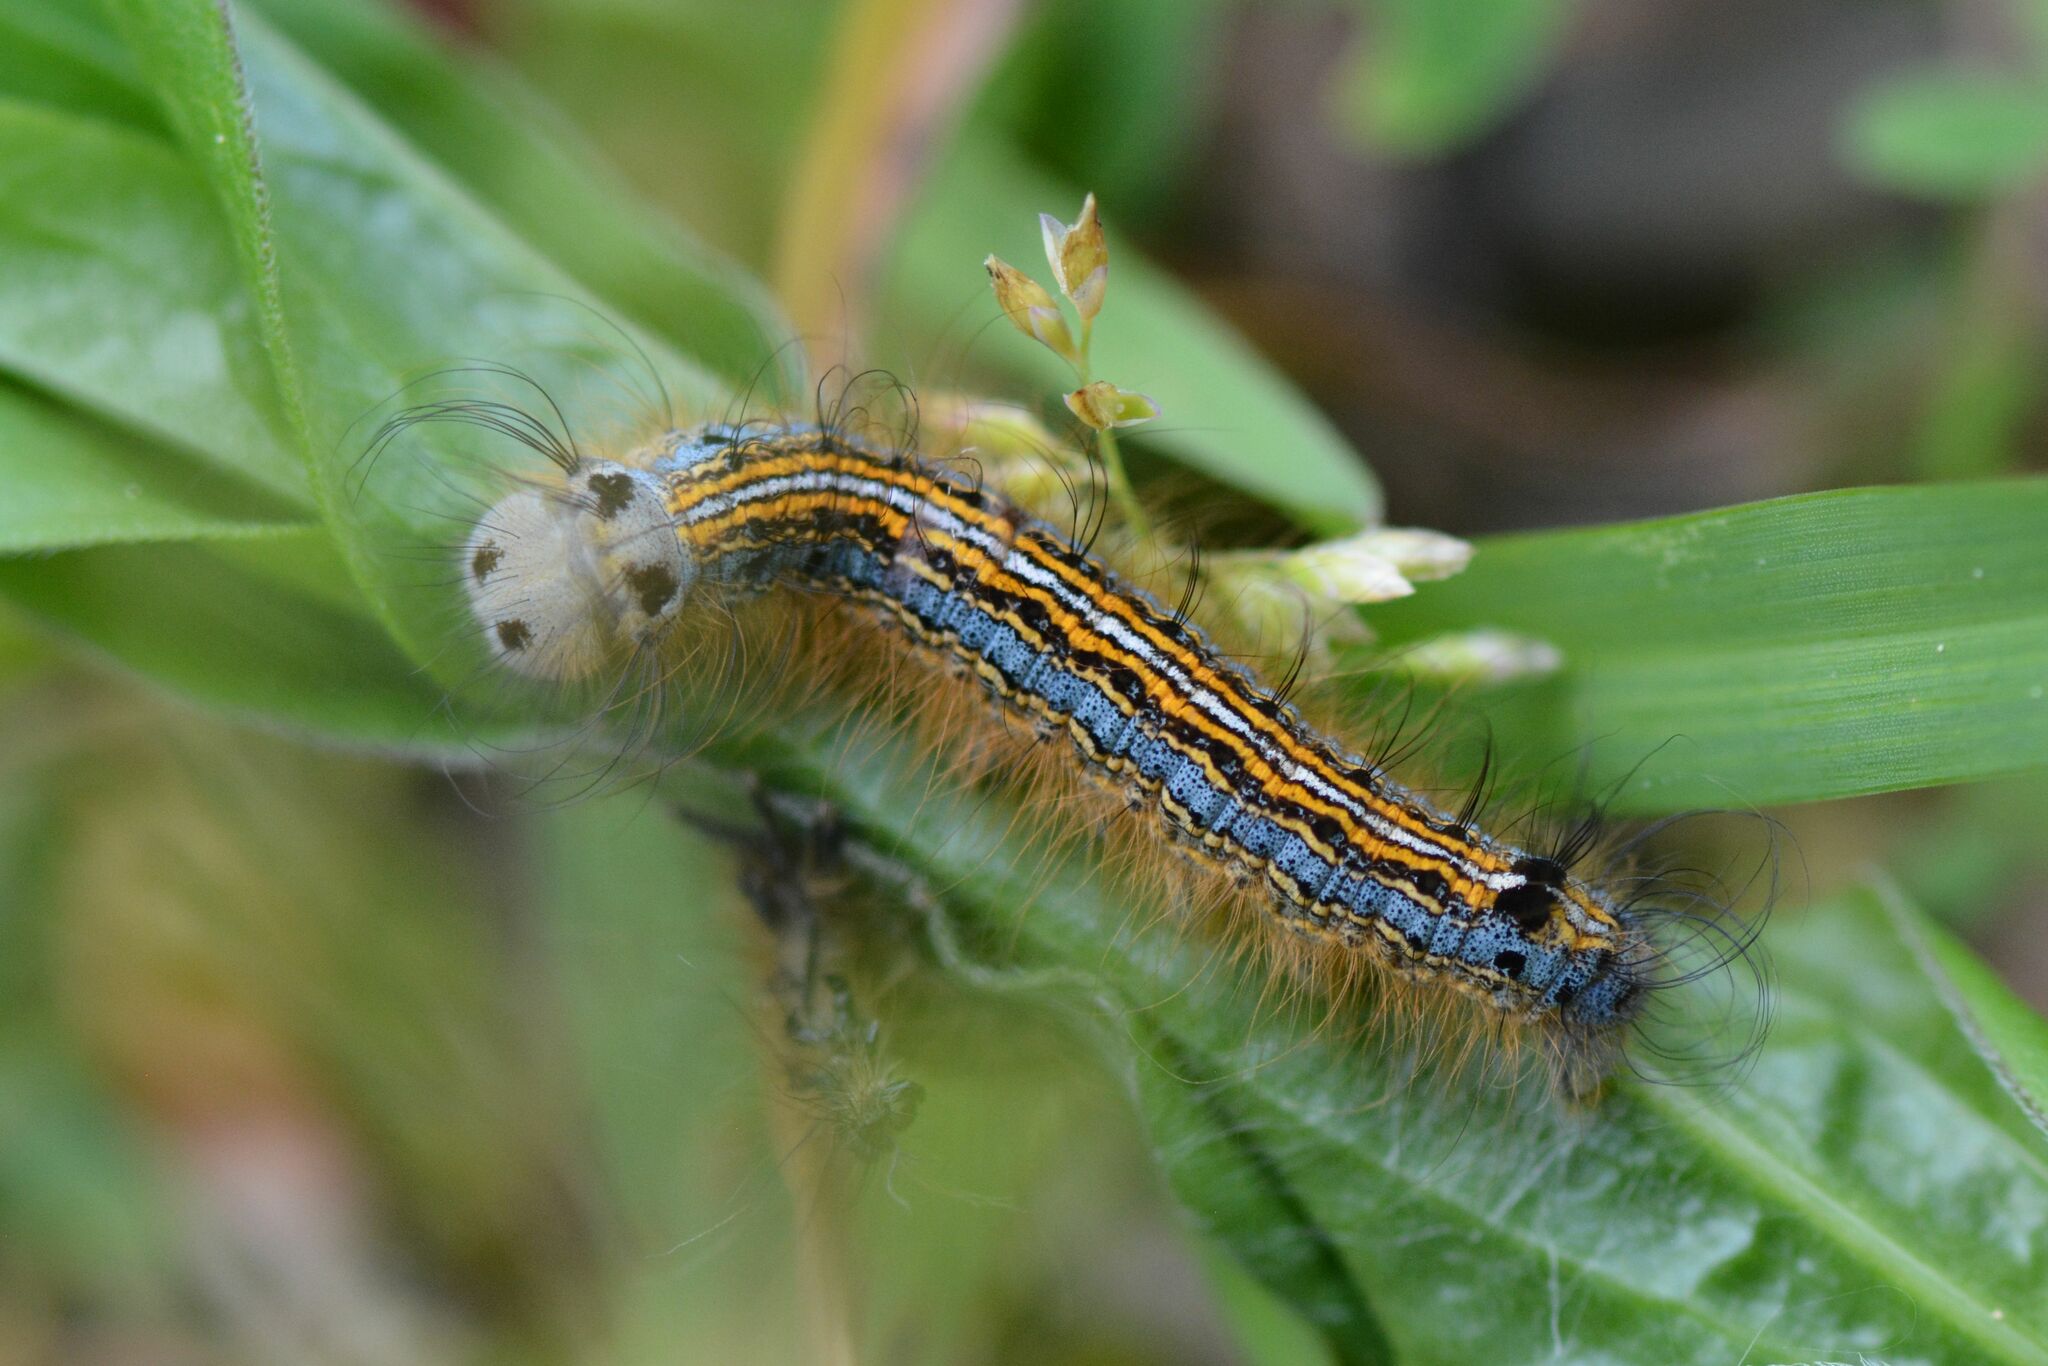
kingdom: Animalia
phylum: Arthropoda
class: Insecta
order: Lepidoptera
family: Lasiocampidae
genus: Malacosoma
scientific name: Malacosoma neustria
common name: The lackey
